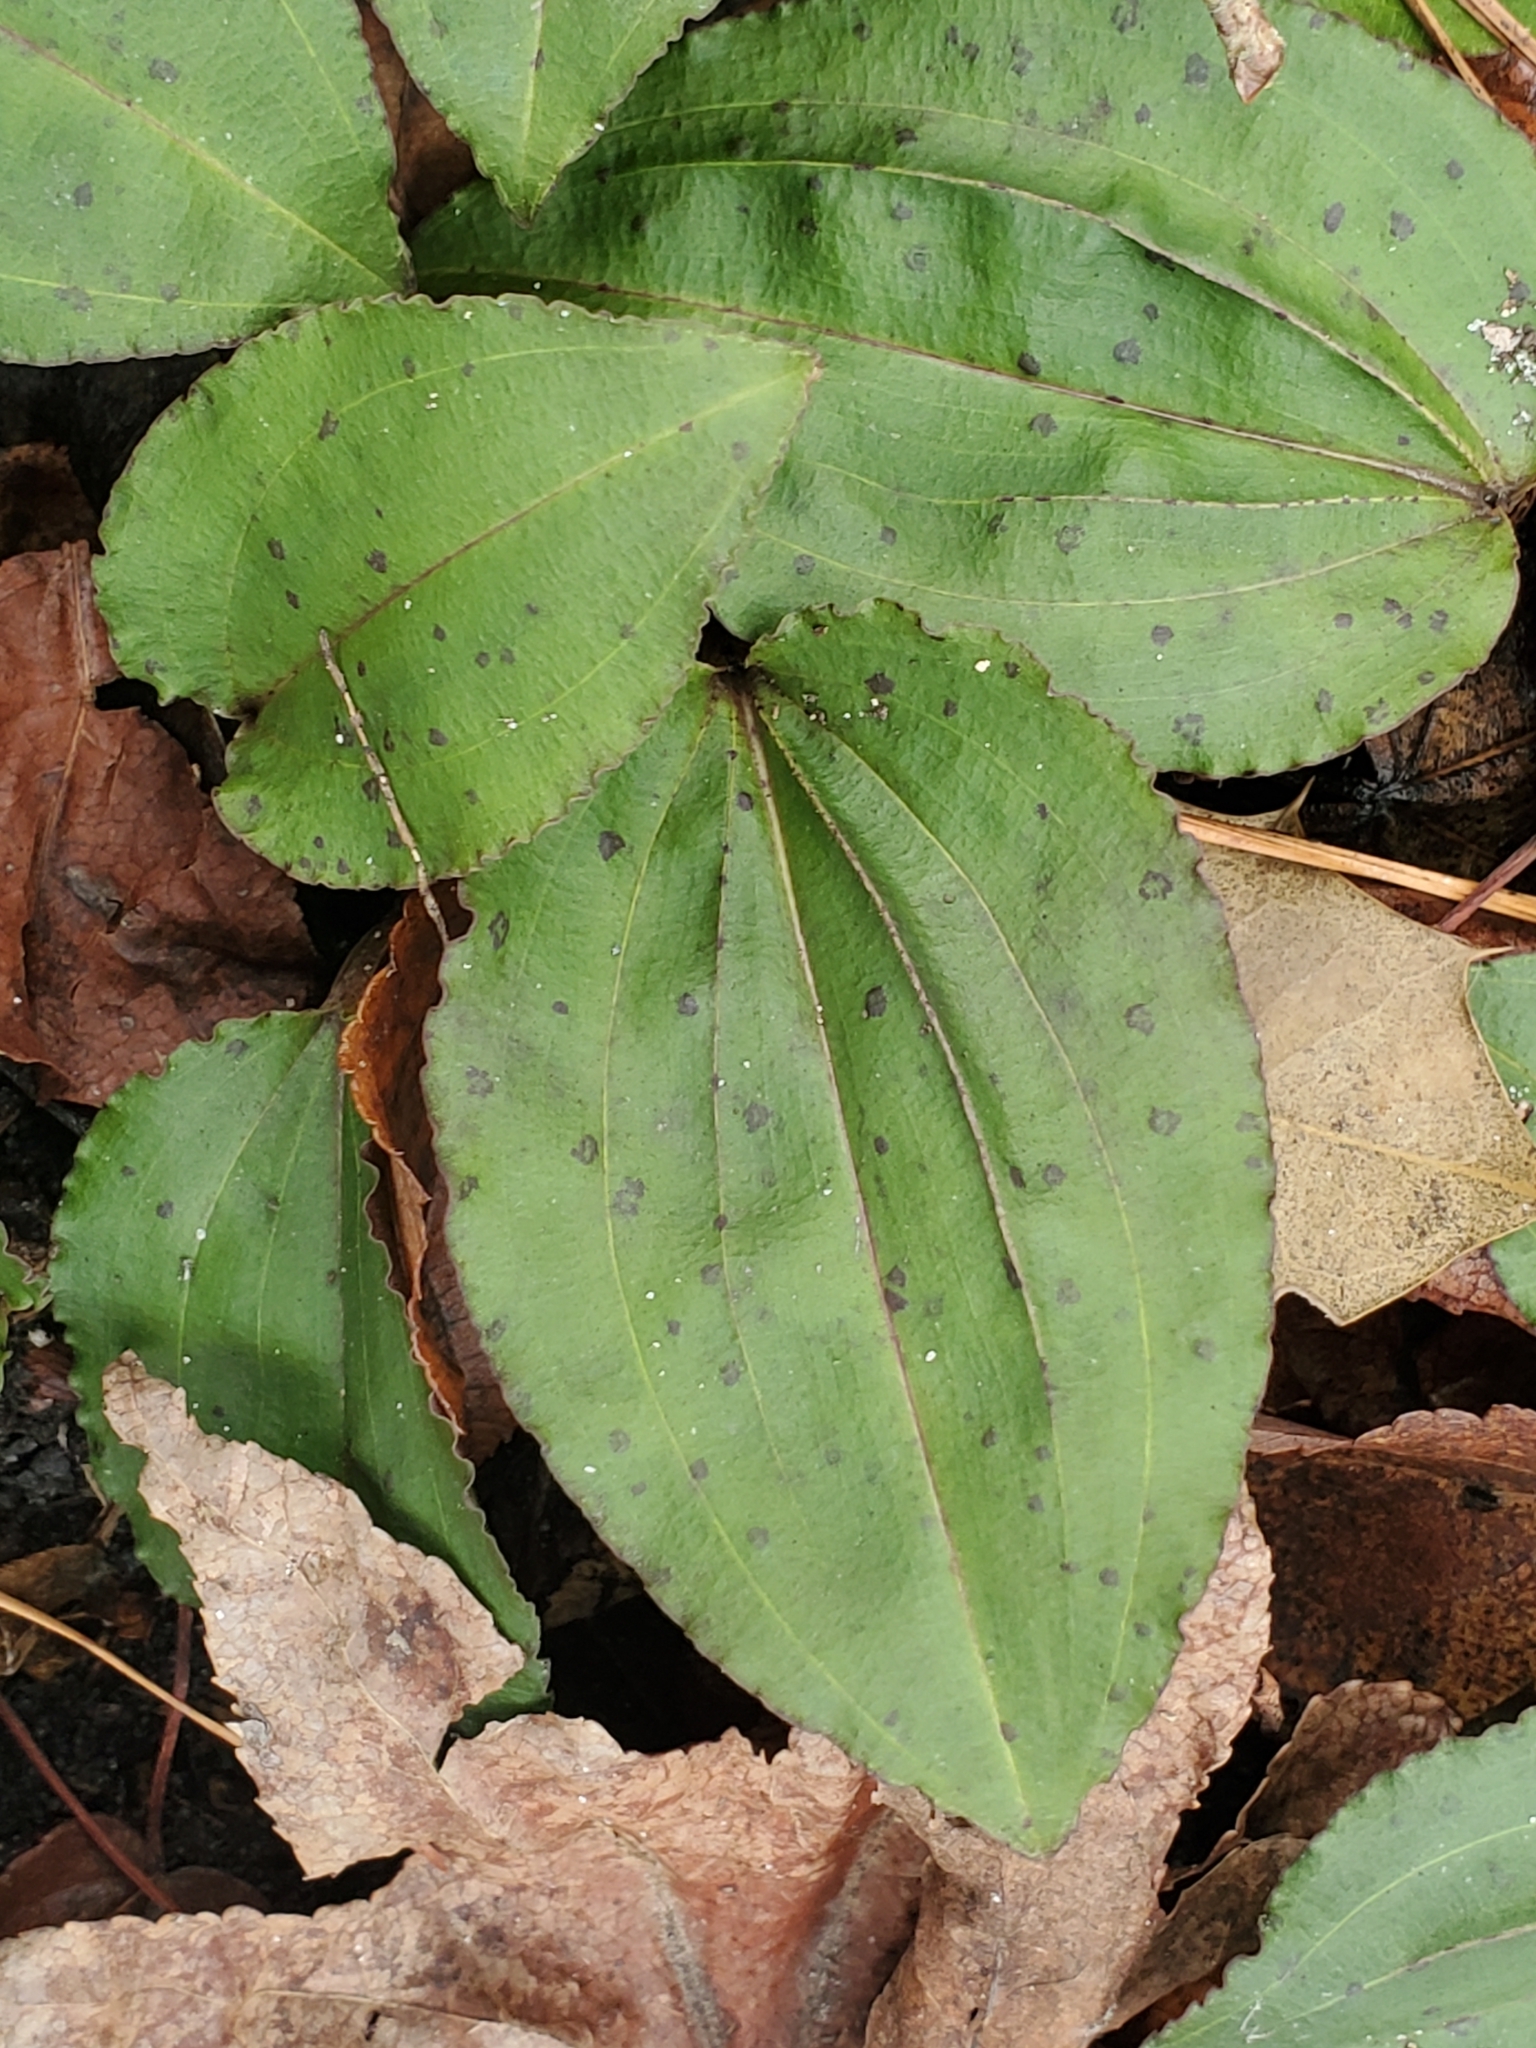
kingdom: Plantae
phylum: Tracheophyta
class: Liliopsida
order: Asparagales
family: Orchidaceae
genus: Tipularia
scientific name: Tipularia discolor
